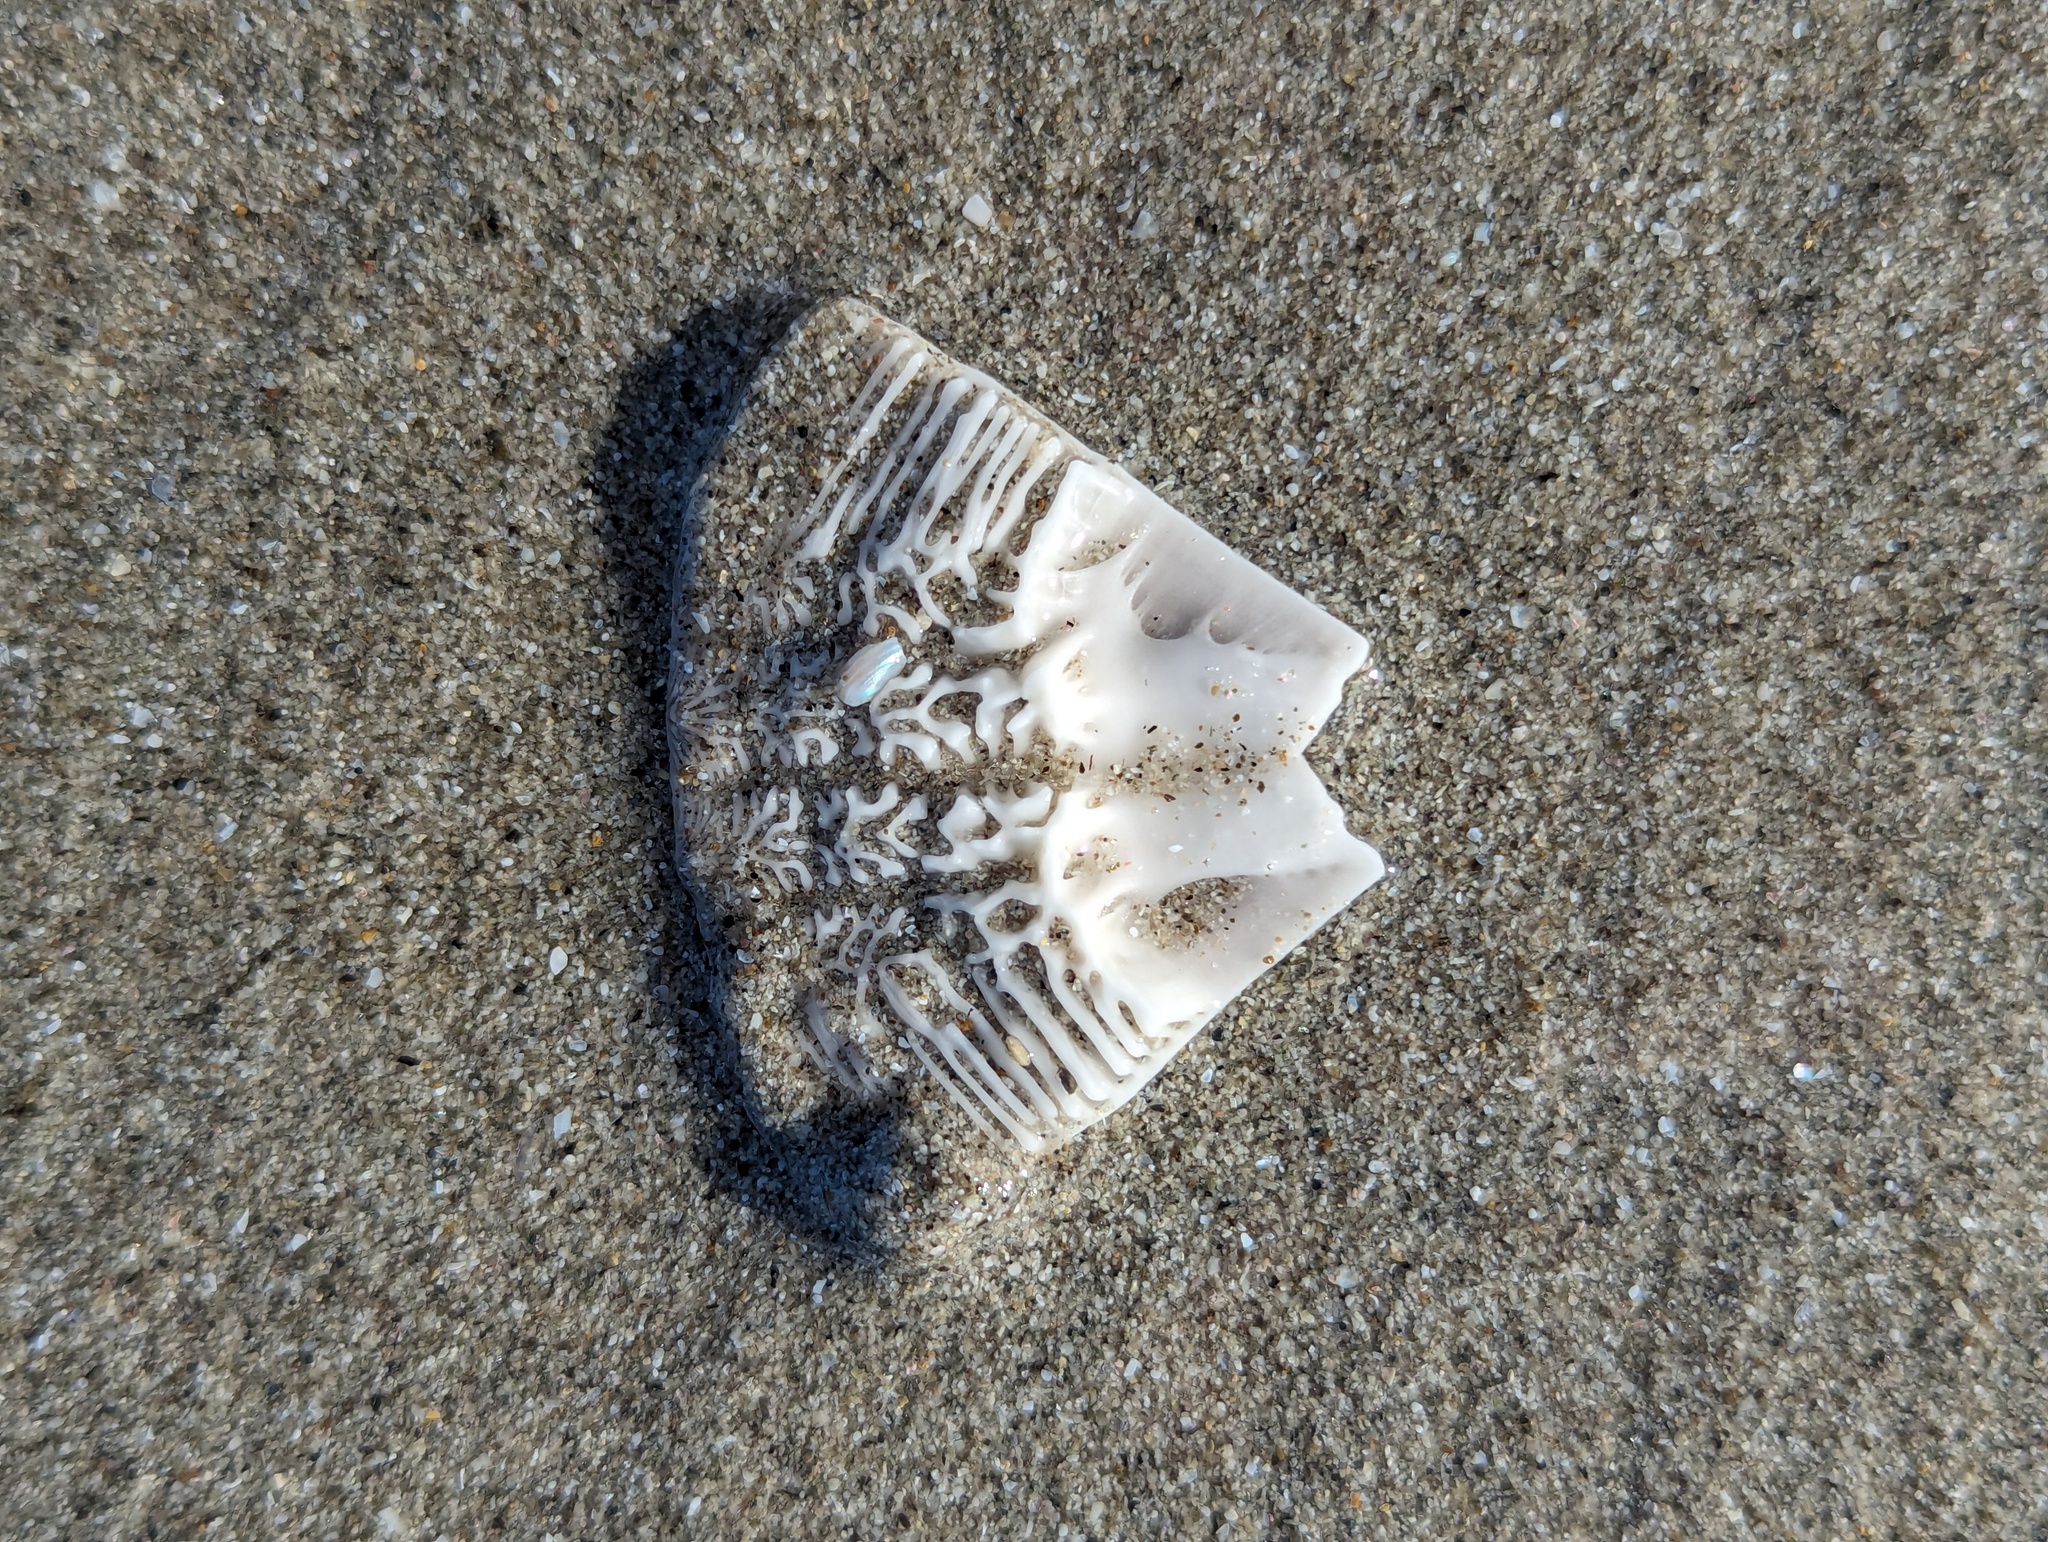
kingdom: Animalia
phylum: Echinodermata
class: Echinoidea
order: Clypeasteroida
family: Clypeasteridae
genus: Fellaster
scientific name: Fellaster zelandiae
